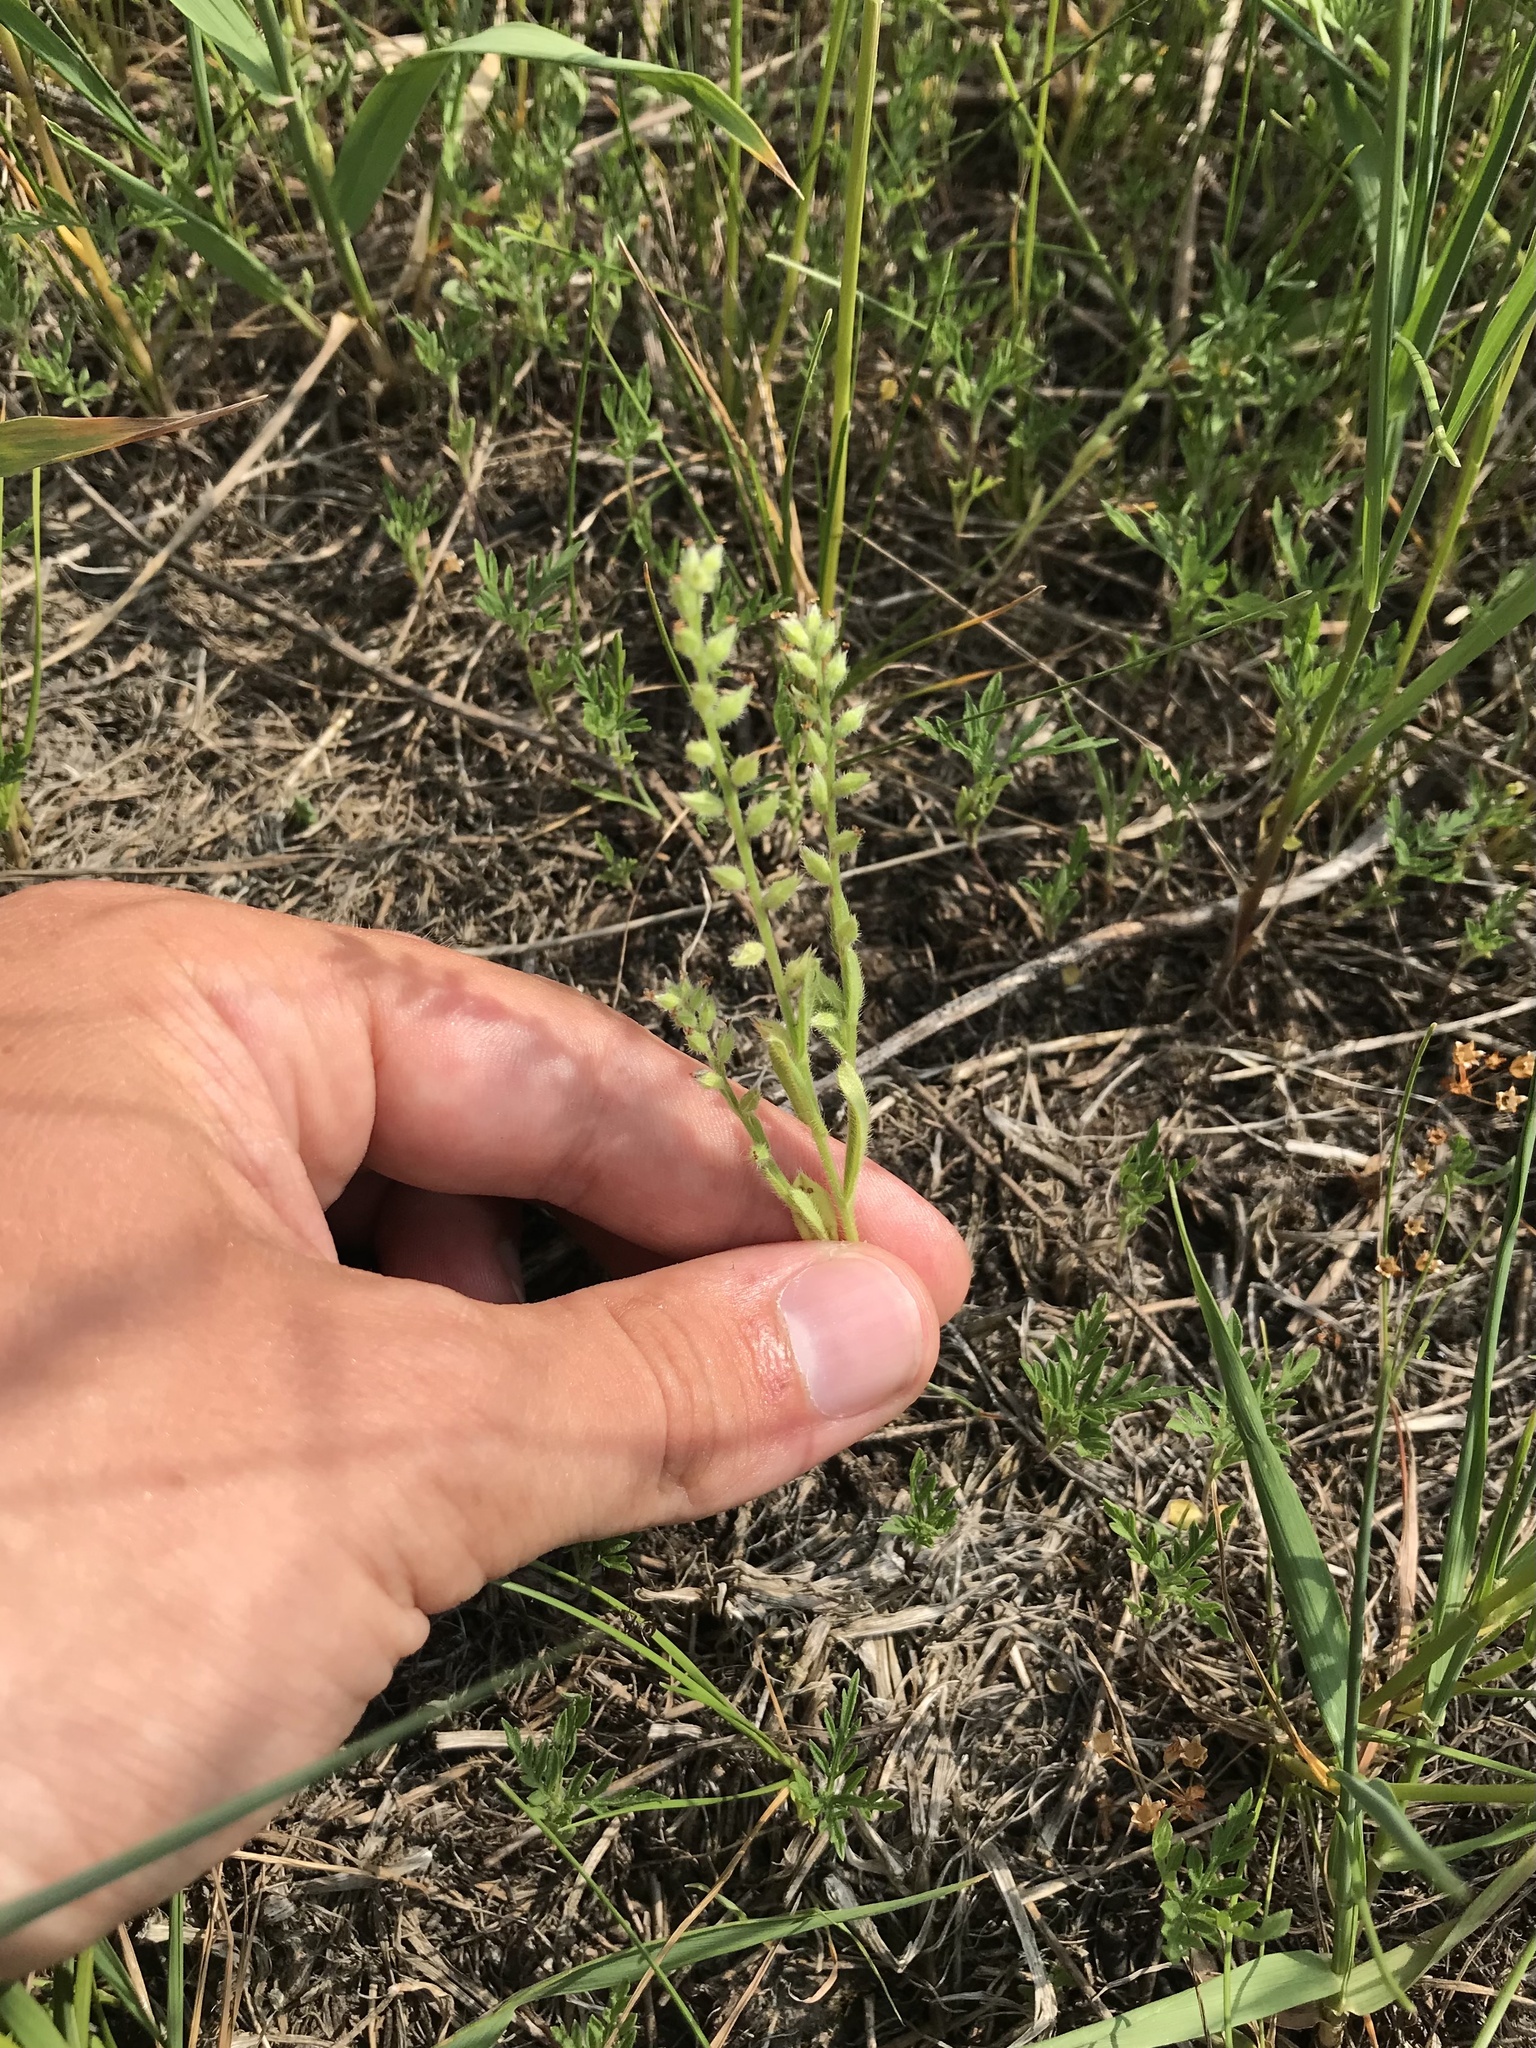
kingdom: Plantae
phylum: Tracheophyta
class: Magnoliopsida
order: Boraginales
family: Boraginaceae
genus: Myosotis
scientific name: Myosotis verna
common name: Early forget-me-not
